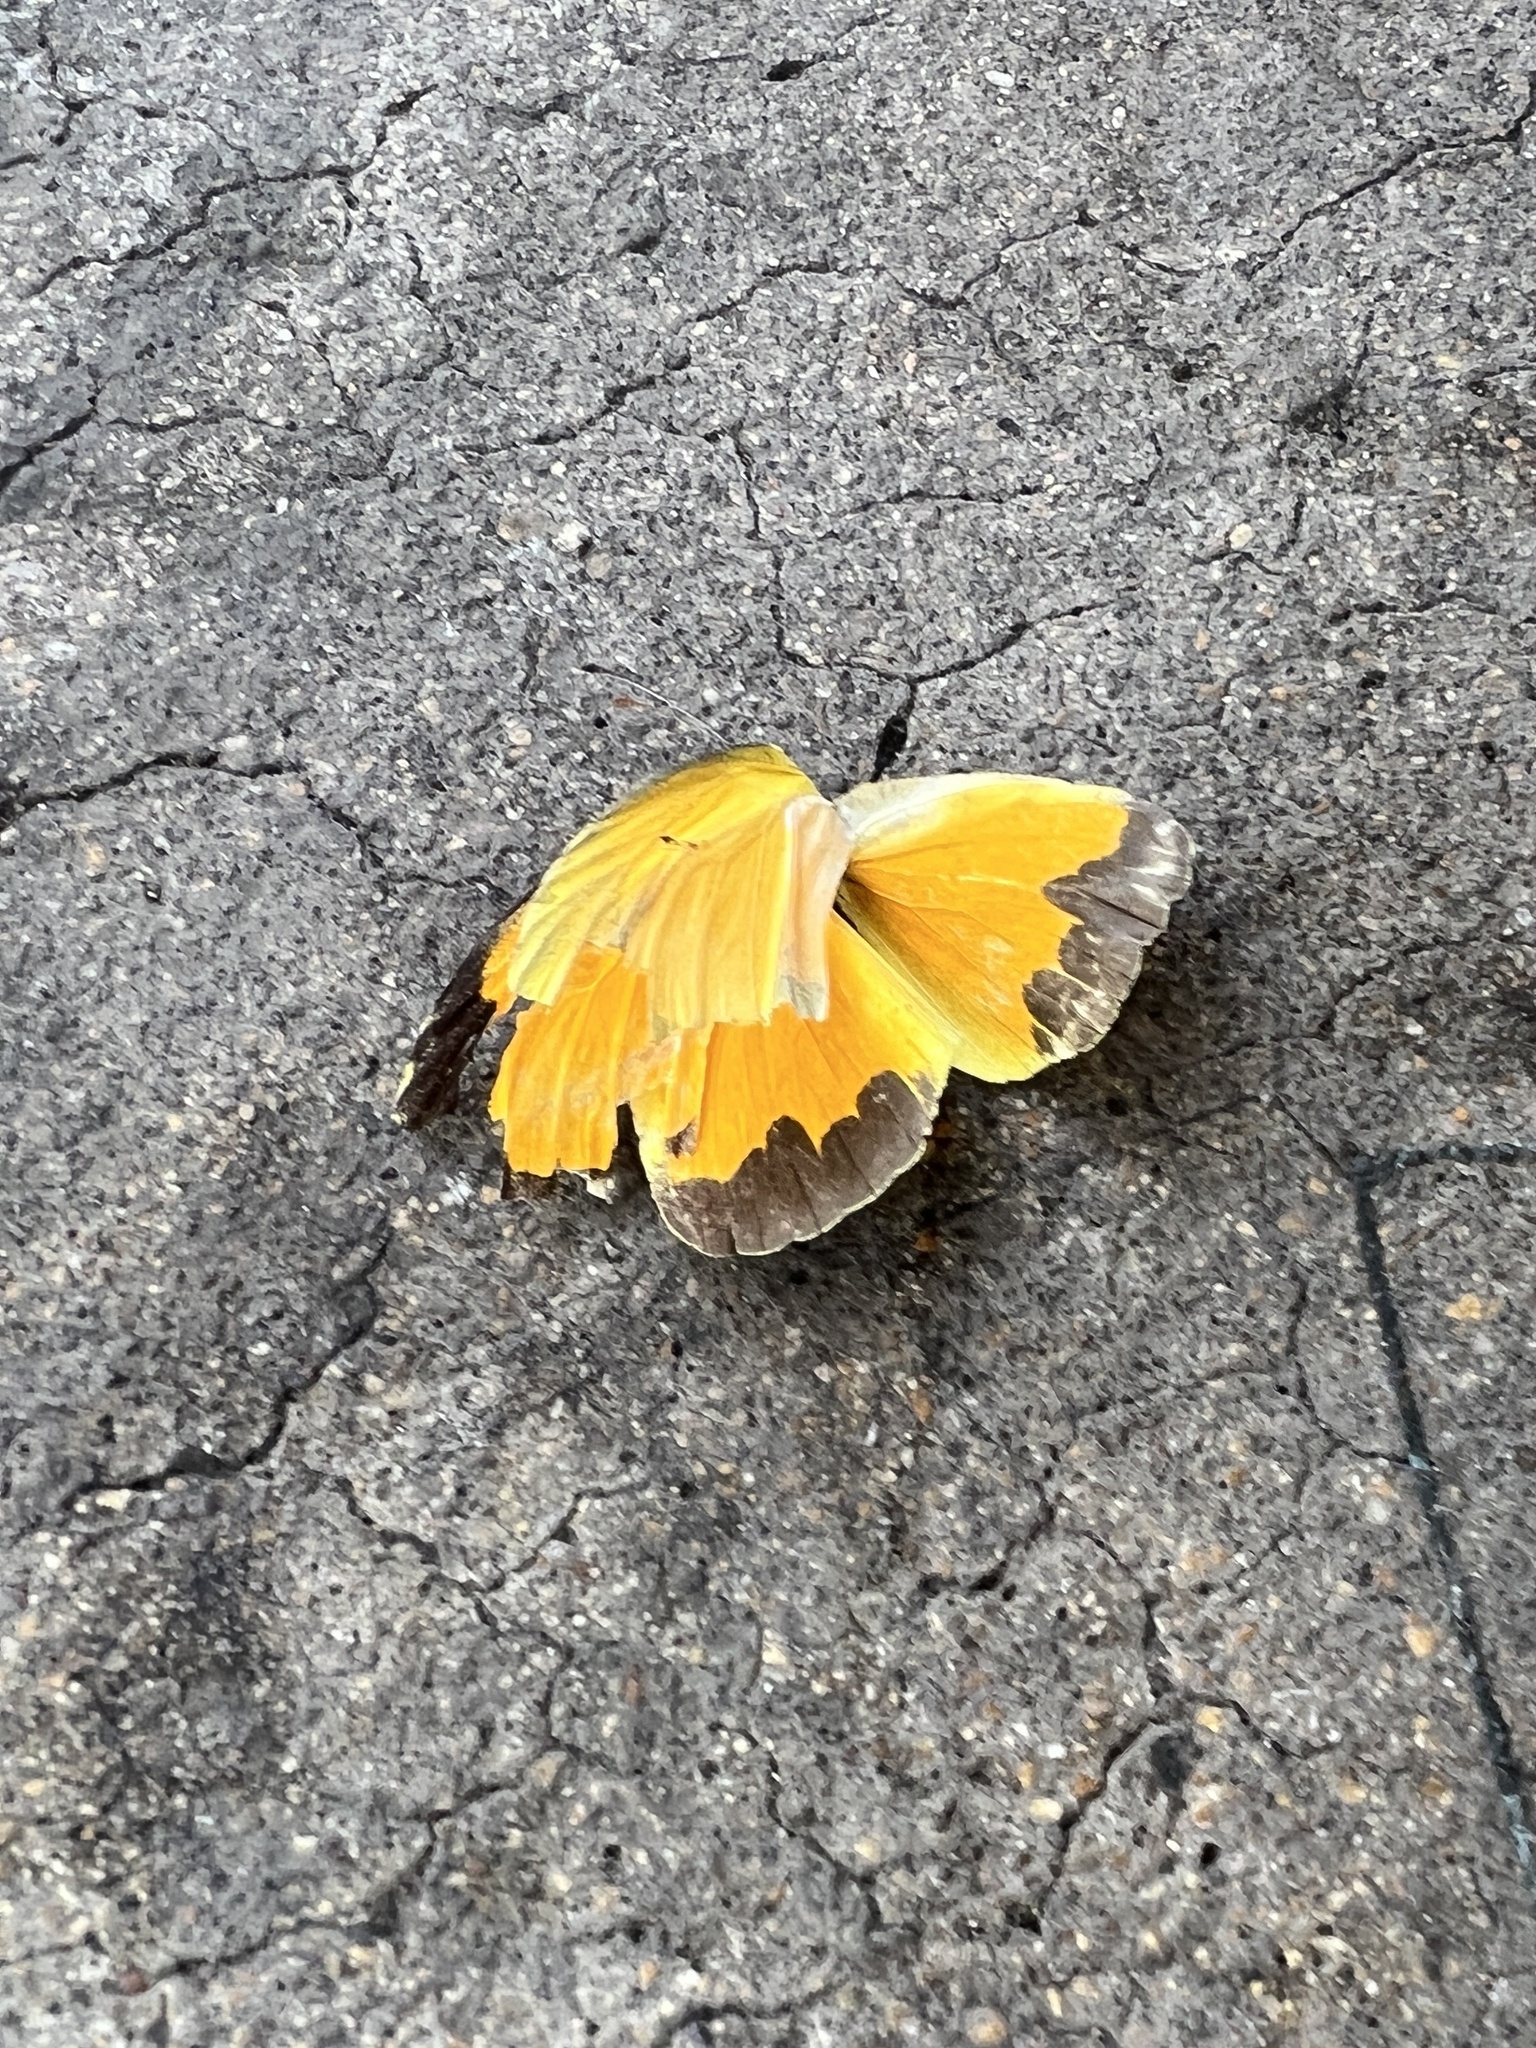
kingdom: Animalia
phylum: Arthropoda
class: Insecta
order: Lepidoptera
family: Pieridae
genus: Abaeis
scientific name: Abaeis nicippe
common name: Sleepy orange
